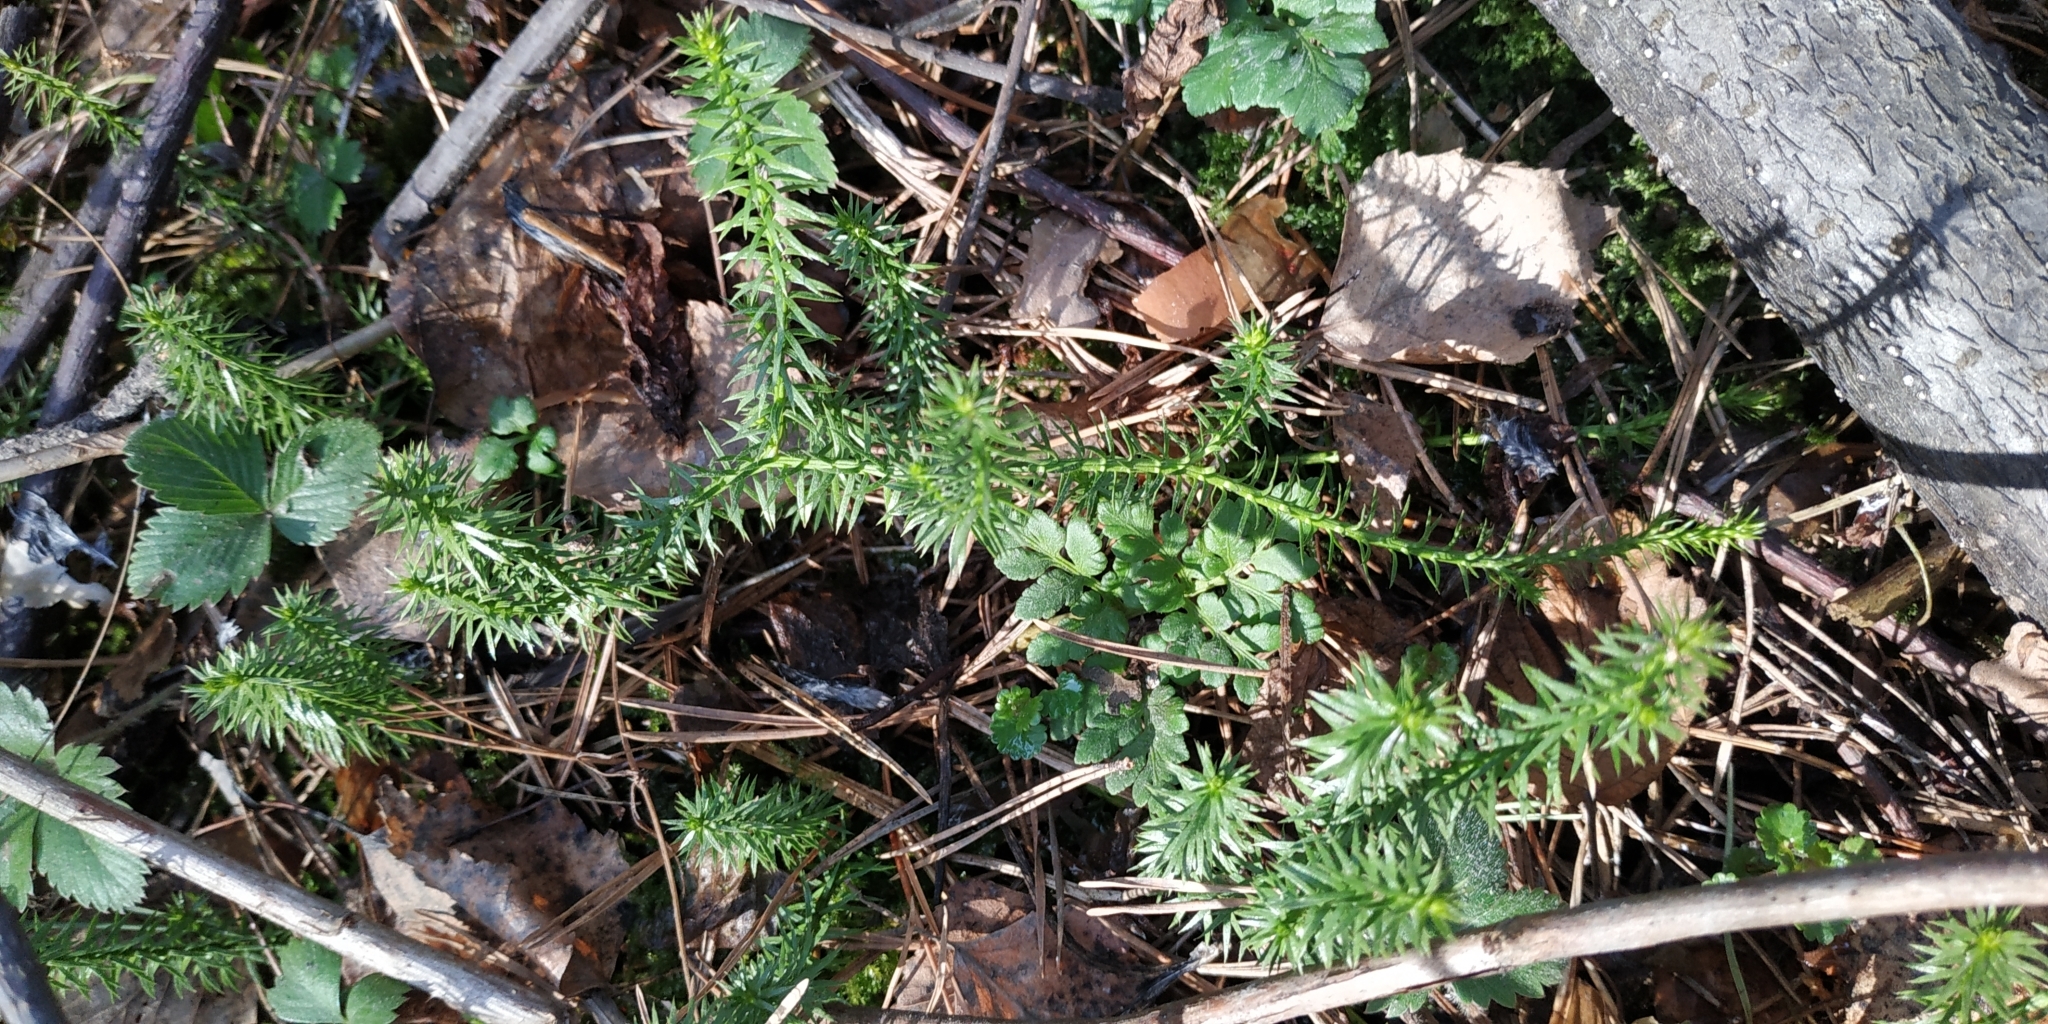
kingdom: Plantae
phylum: Tracheophyta
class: Lycopodiopsida
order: Lycopodiales
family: Lycopodiaceae
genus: Spinulum
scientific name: Spinulum annotinum
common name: Interrupted club-moss
